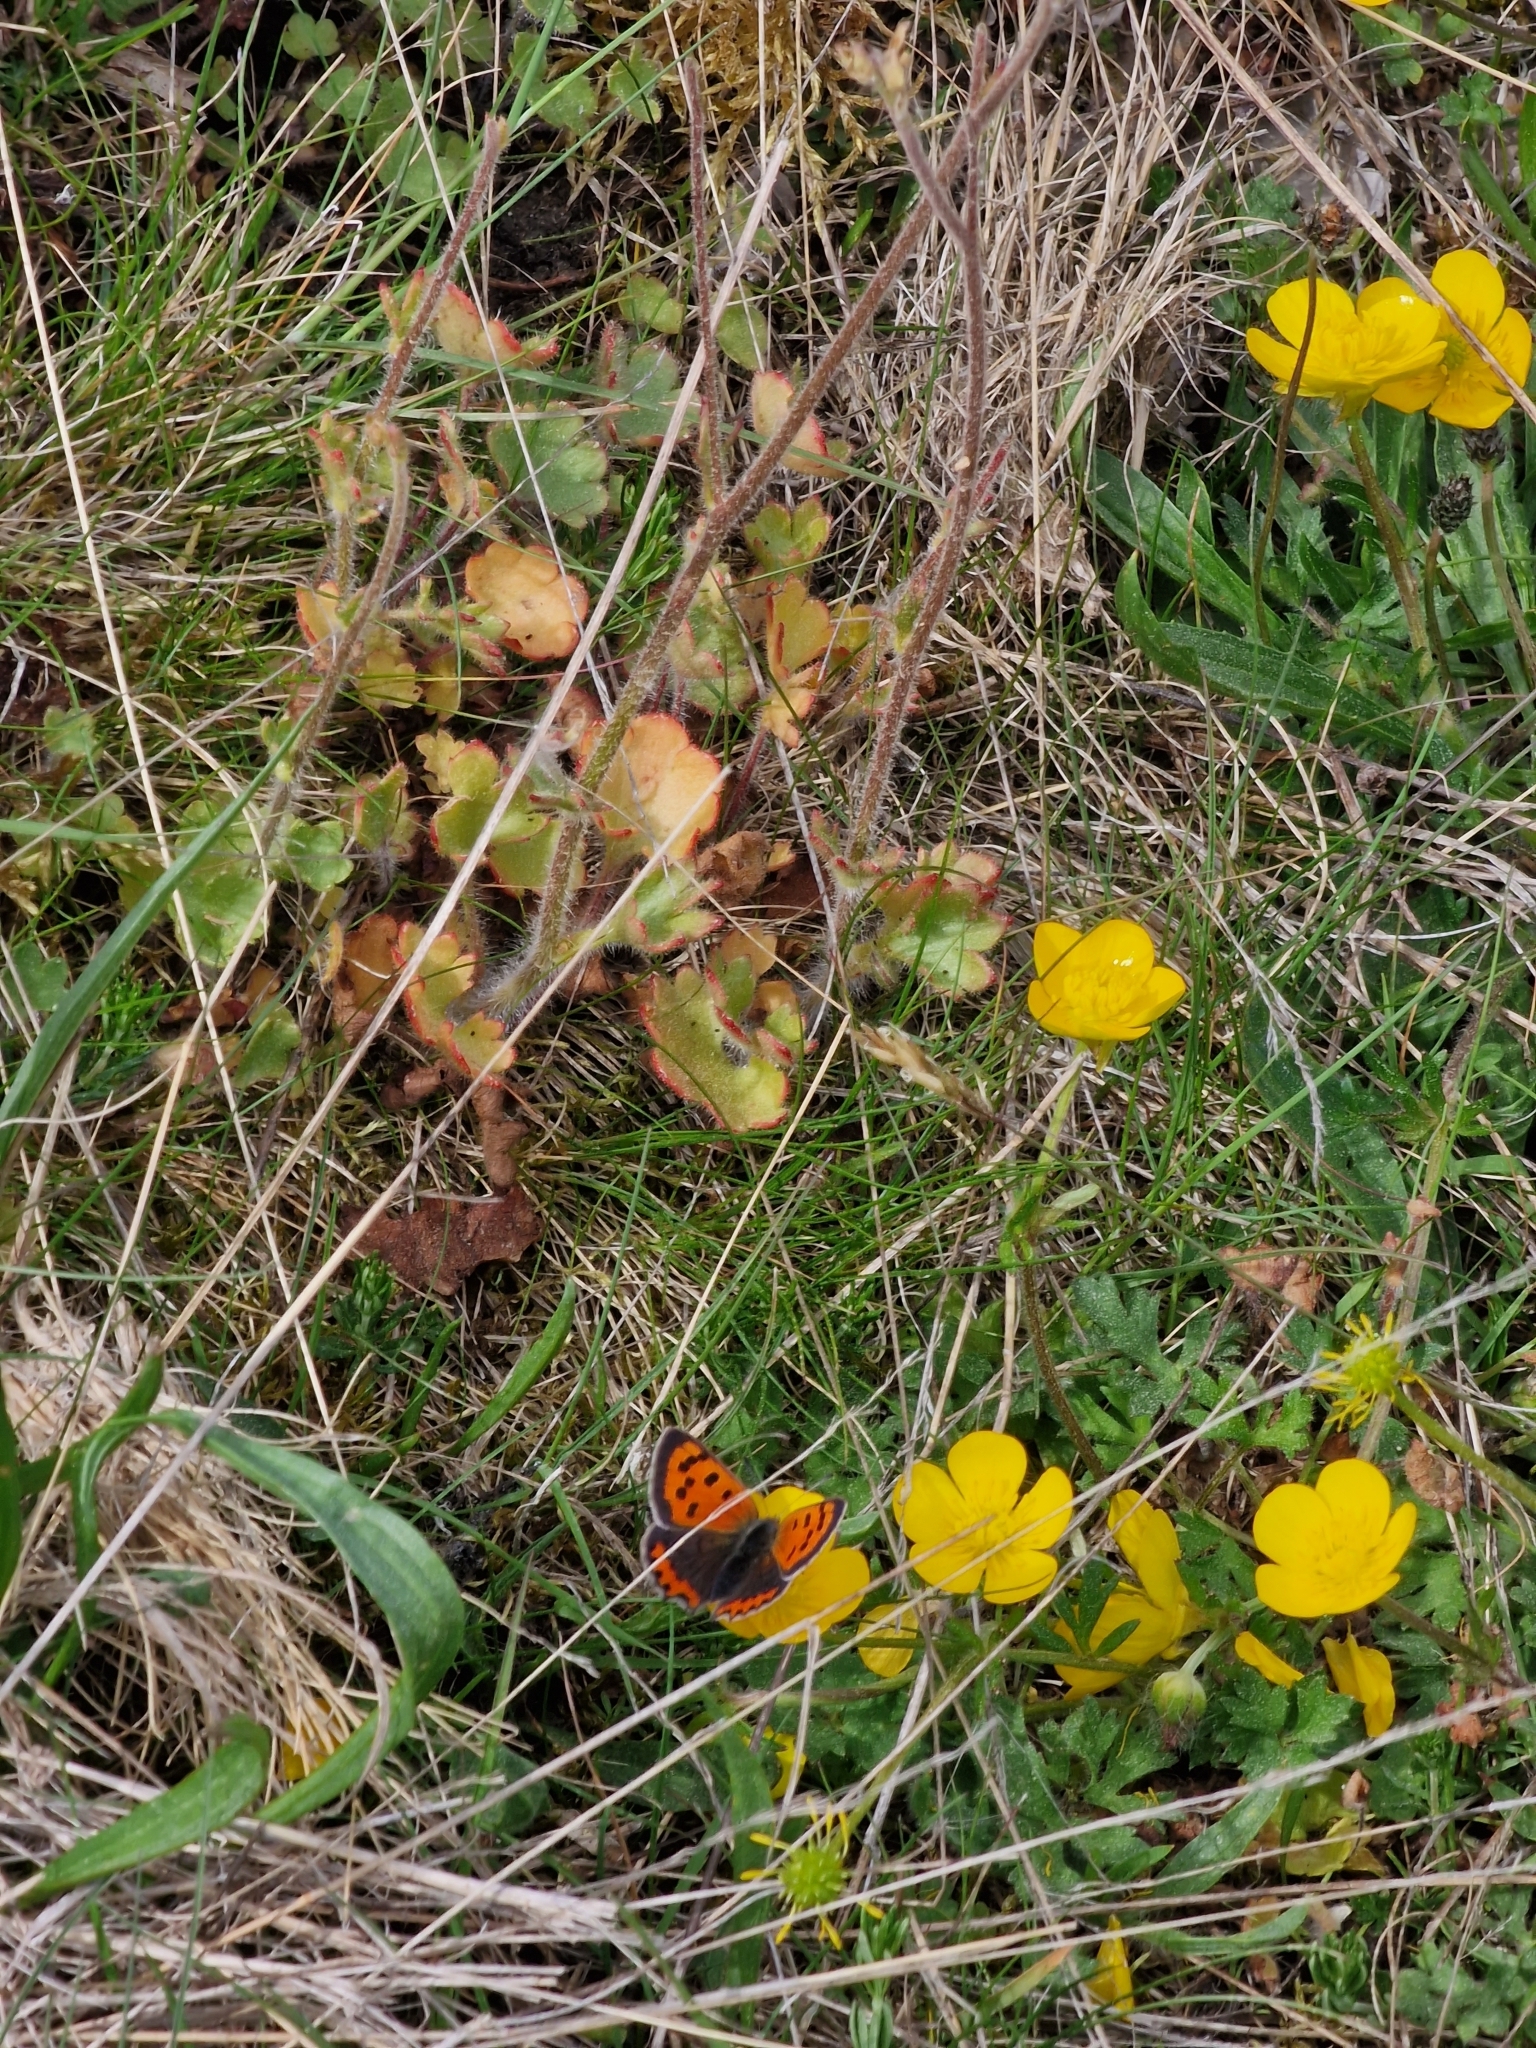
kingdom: Animalia
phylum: Arthropoda
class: Insecta
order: Lepidoptera
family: Lycaenidae
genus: Lycaena
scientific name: Lycaena phlaeas
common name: Small copper
